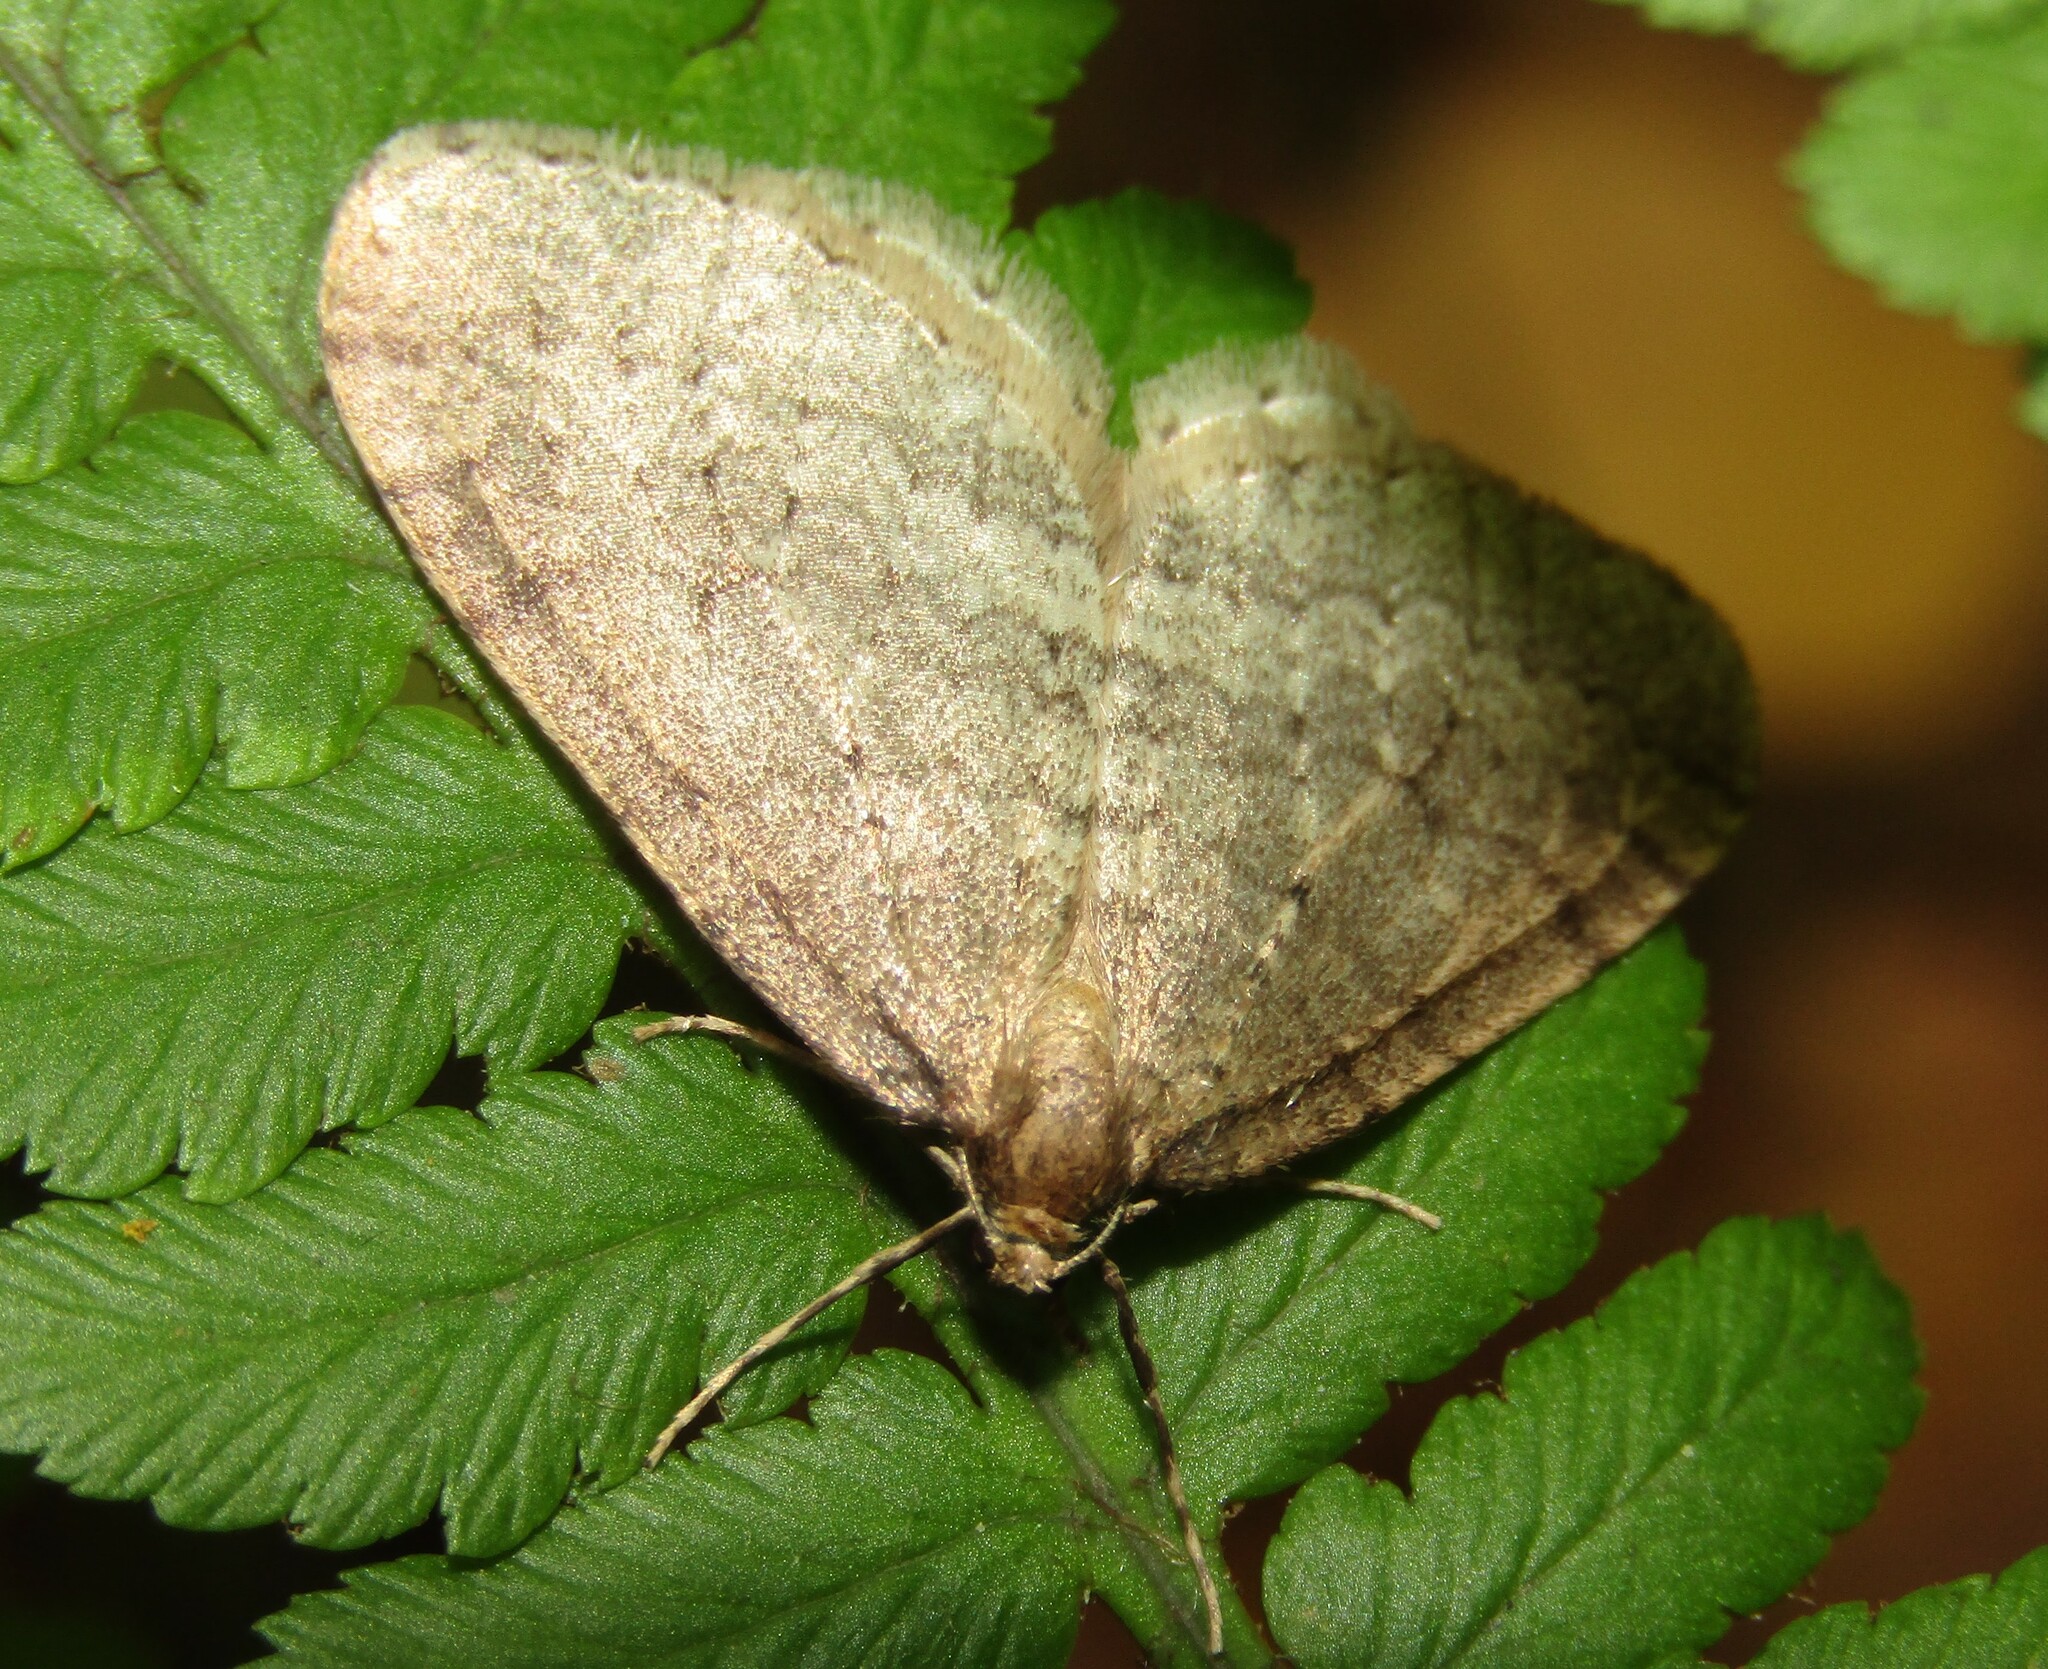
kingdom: Animalia
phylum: Arthropoda
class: Insecta
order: Lepidoptera
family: Geometridae
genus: Operophtera
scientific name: Operophtera brumata
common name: Winter moth
